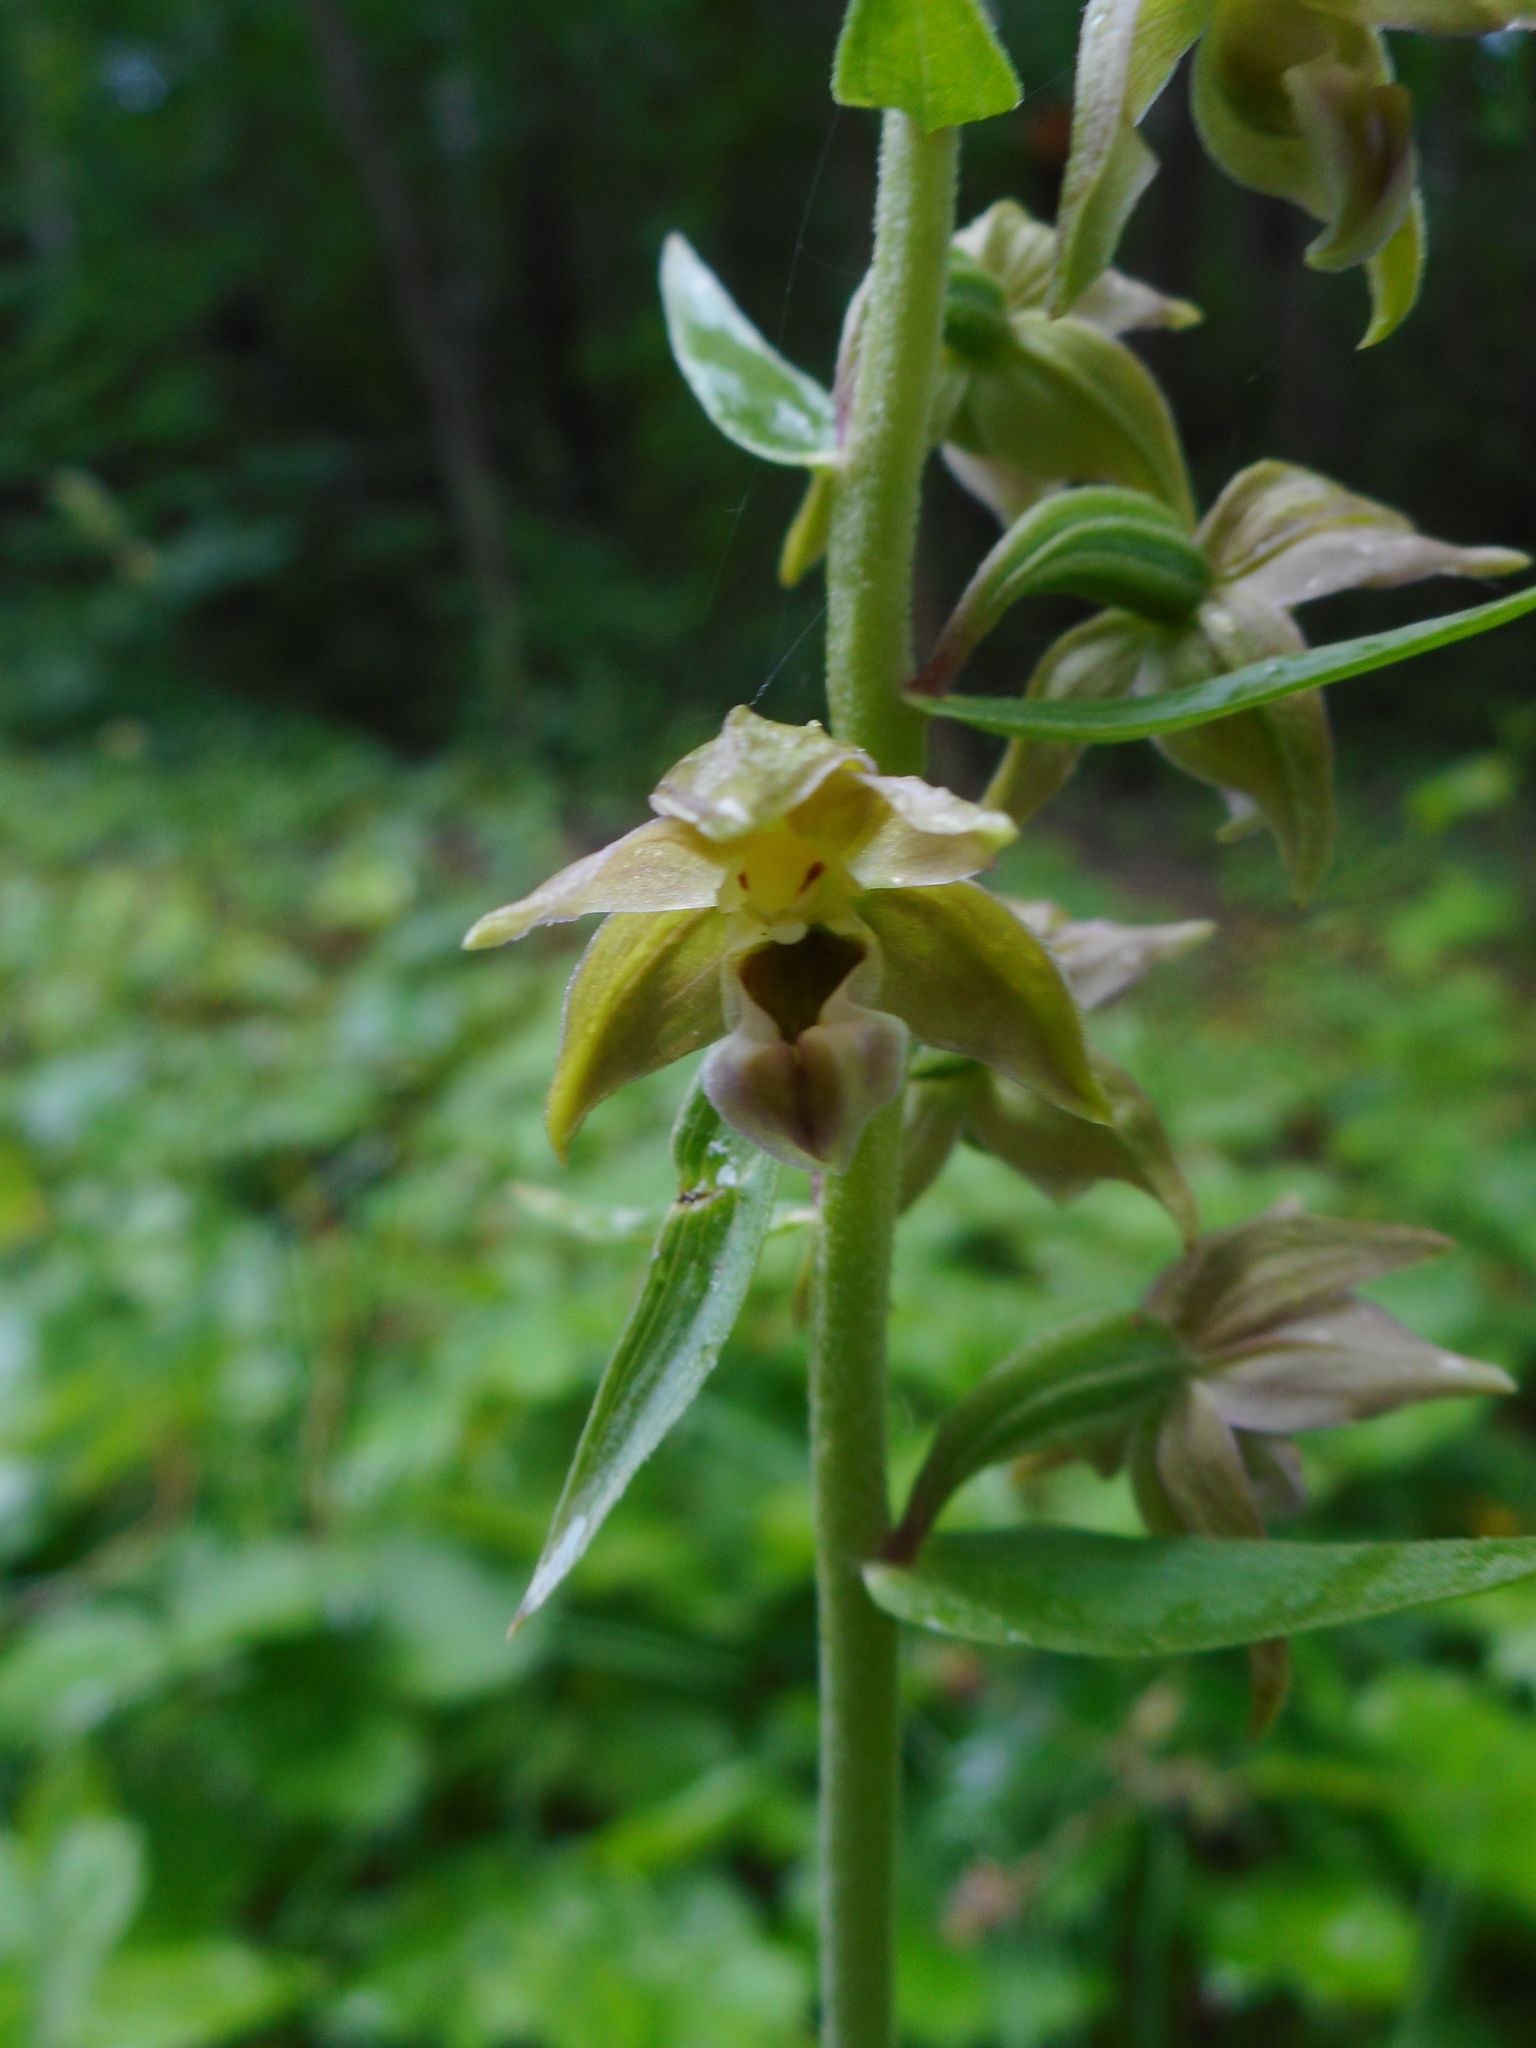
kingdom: Plantae
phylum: Tracheophyta
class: Liliopsida
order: Asparagales
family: Orchidaceae
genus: Epipactis
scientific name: Epipactis helleborine
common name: Broad-leaved helleborine
